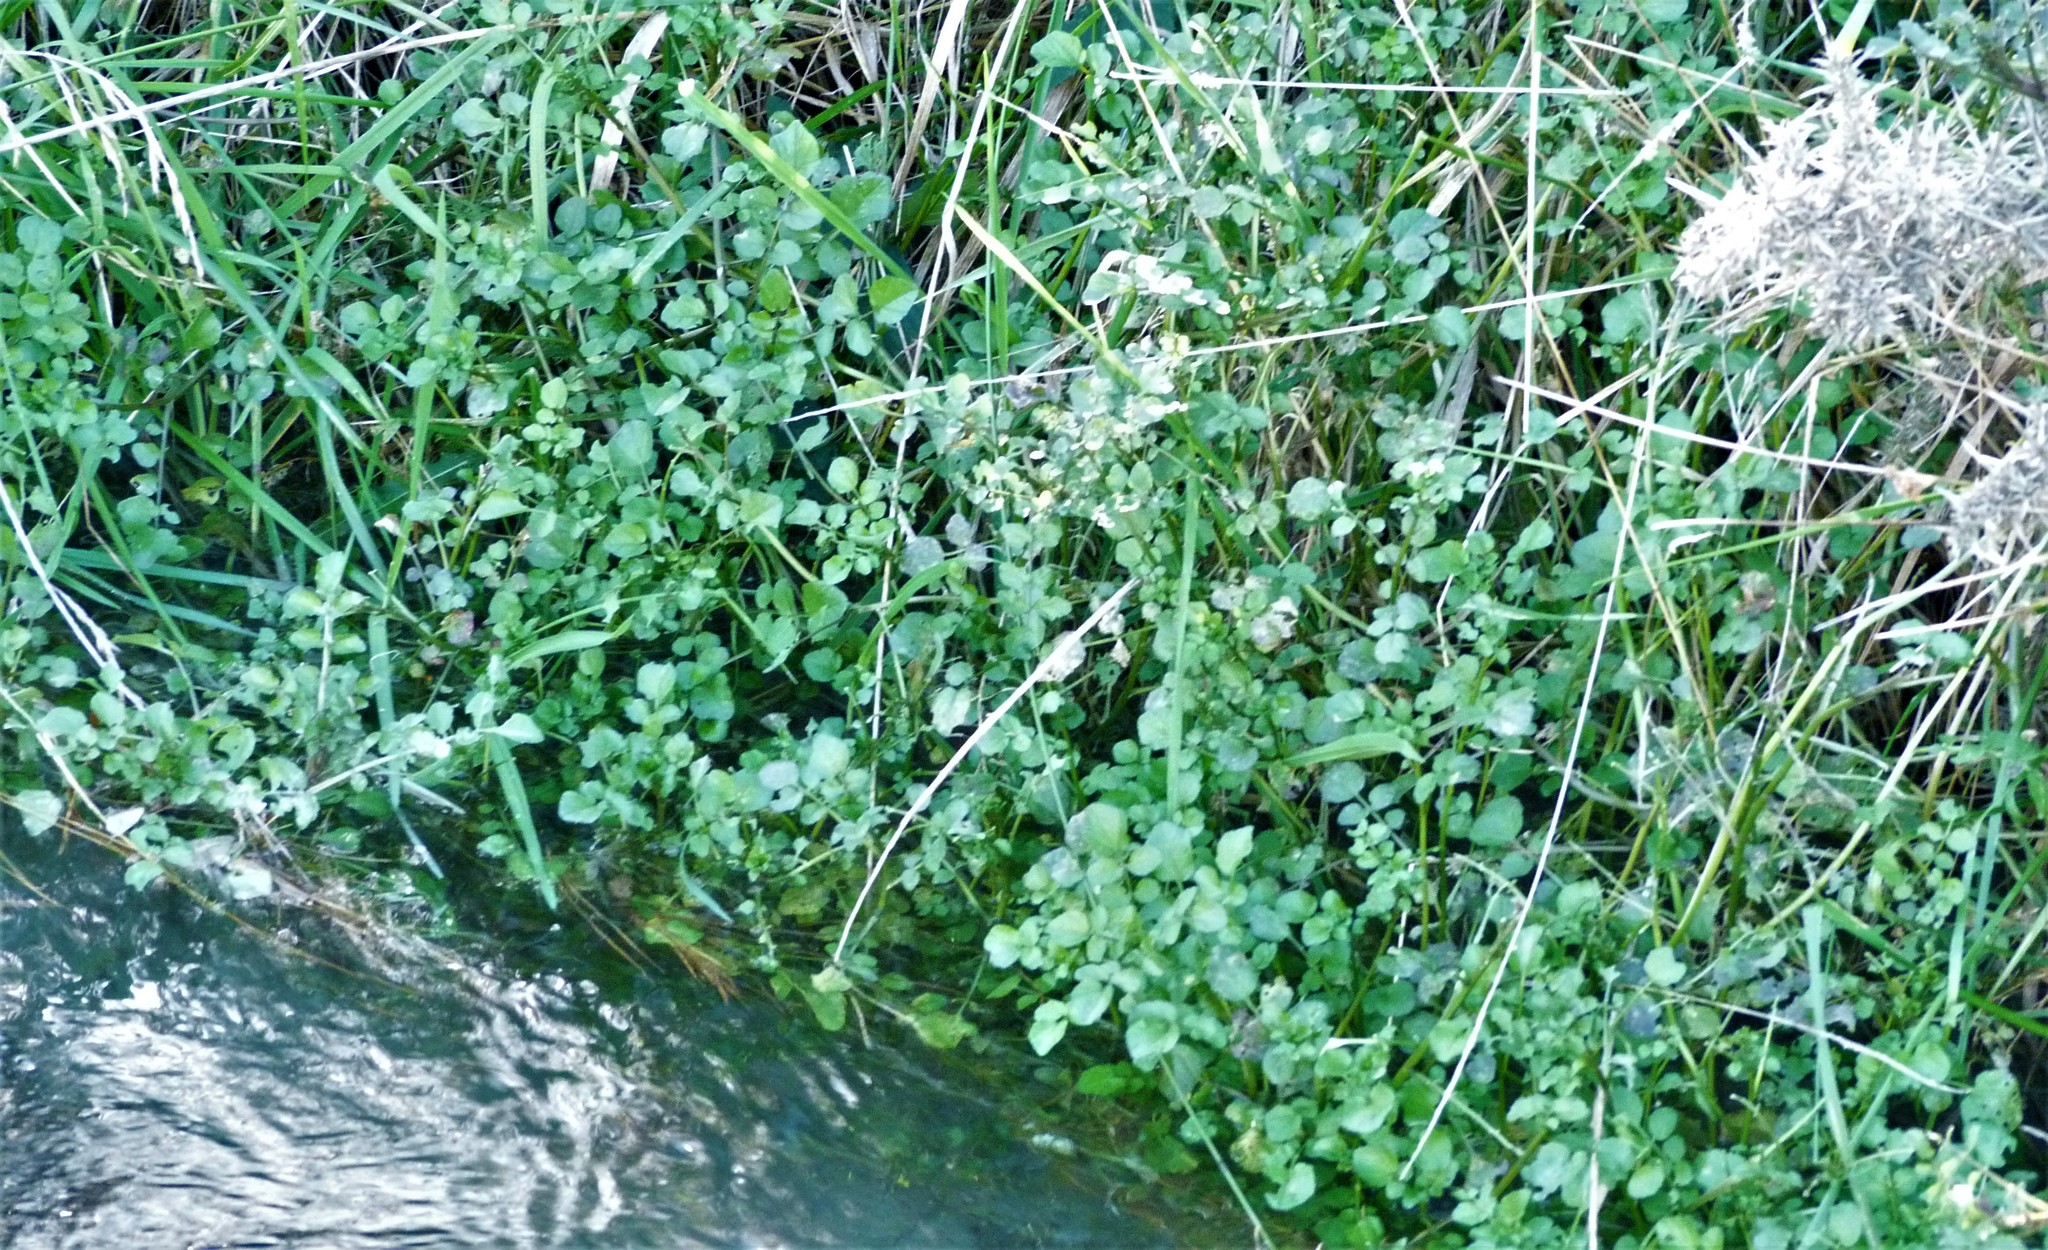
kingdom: Plantae
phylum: Tracheophyta
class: Magnoliopsida
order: Brassicales
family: Brassicaceae
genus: Nasturtium
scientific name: Nasturtium officinale
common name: Watercress
